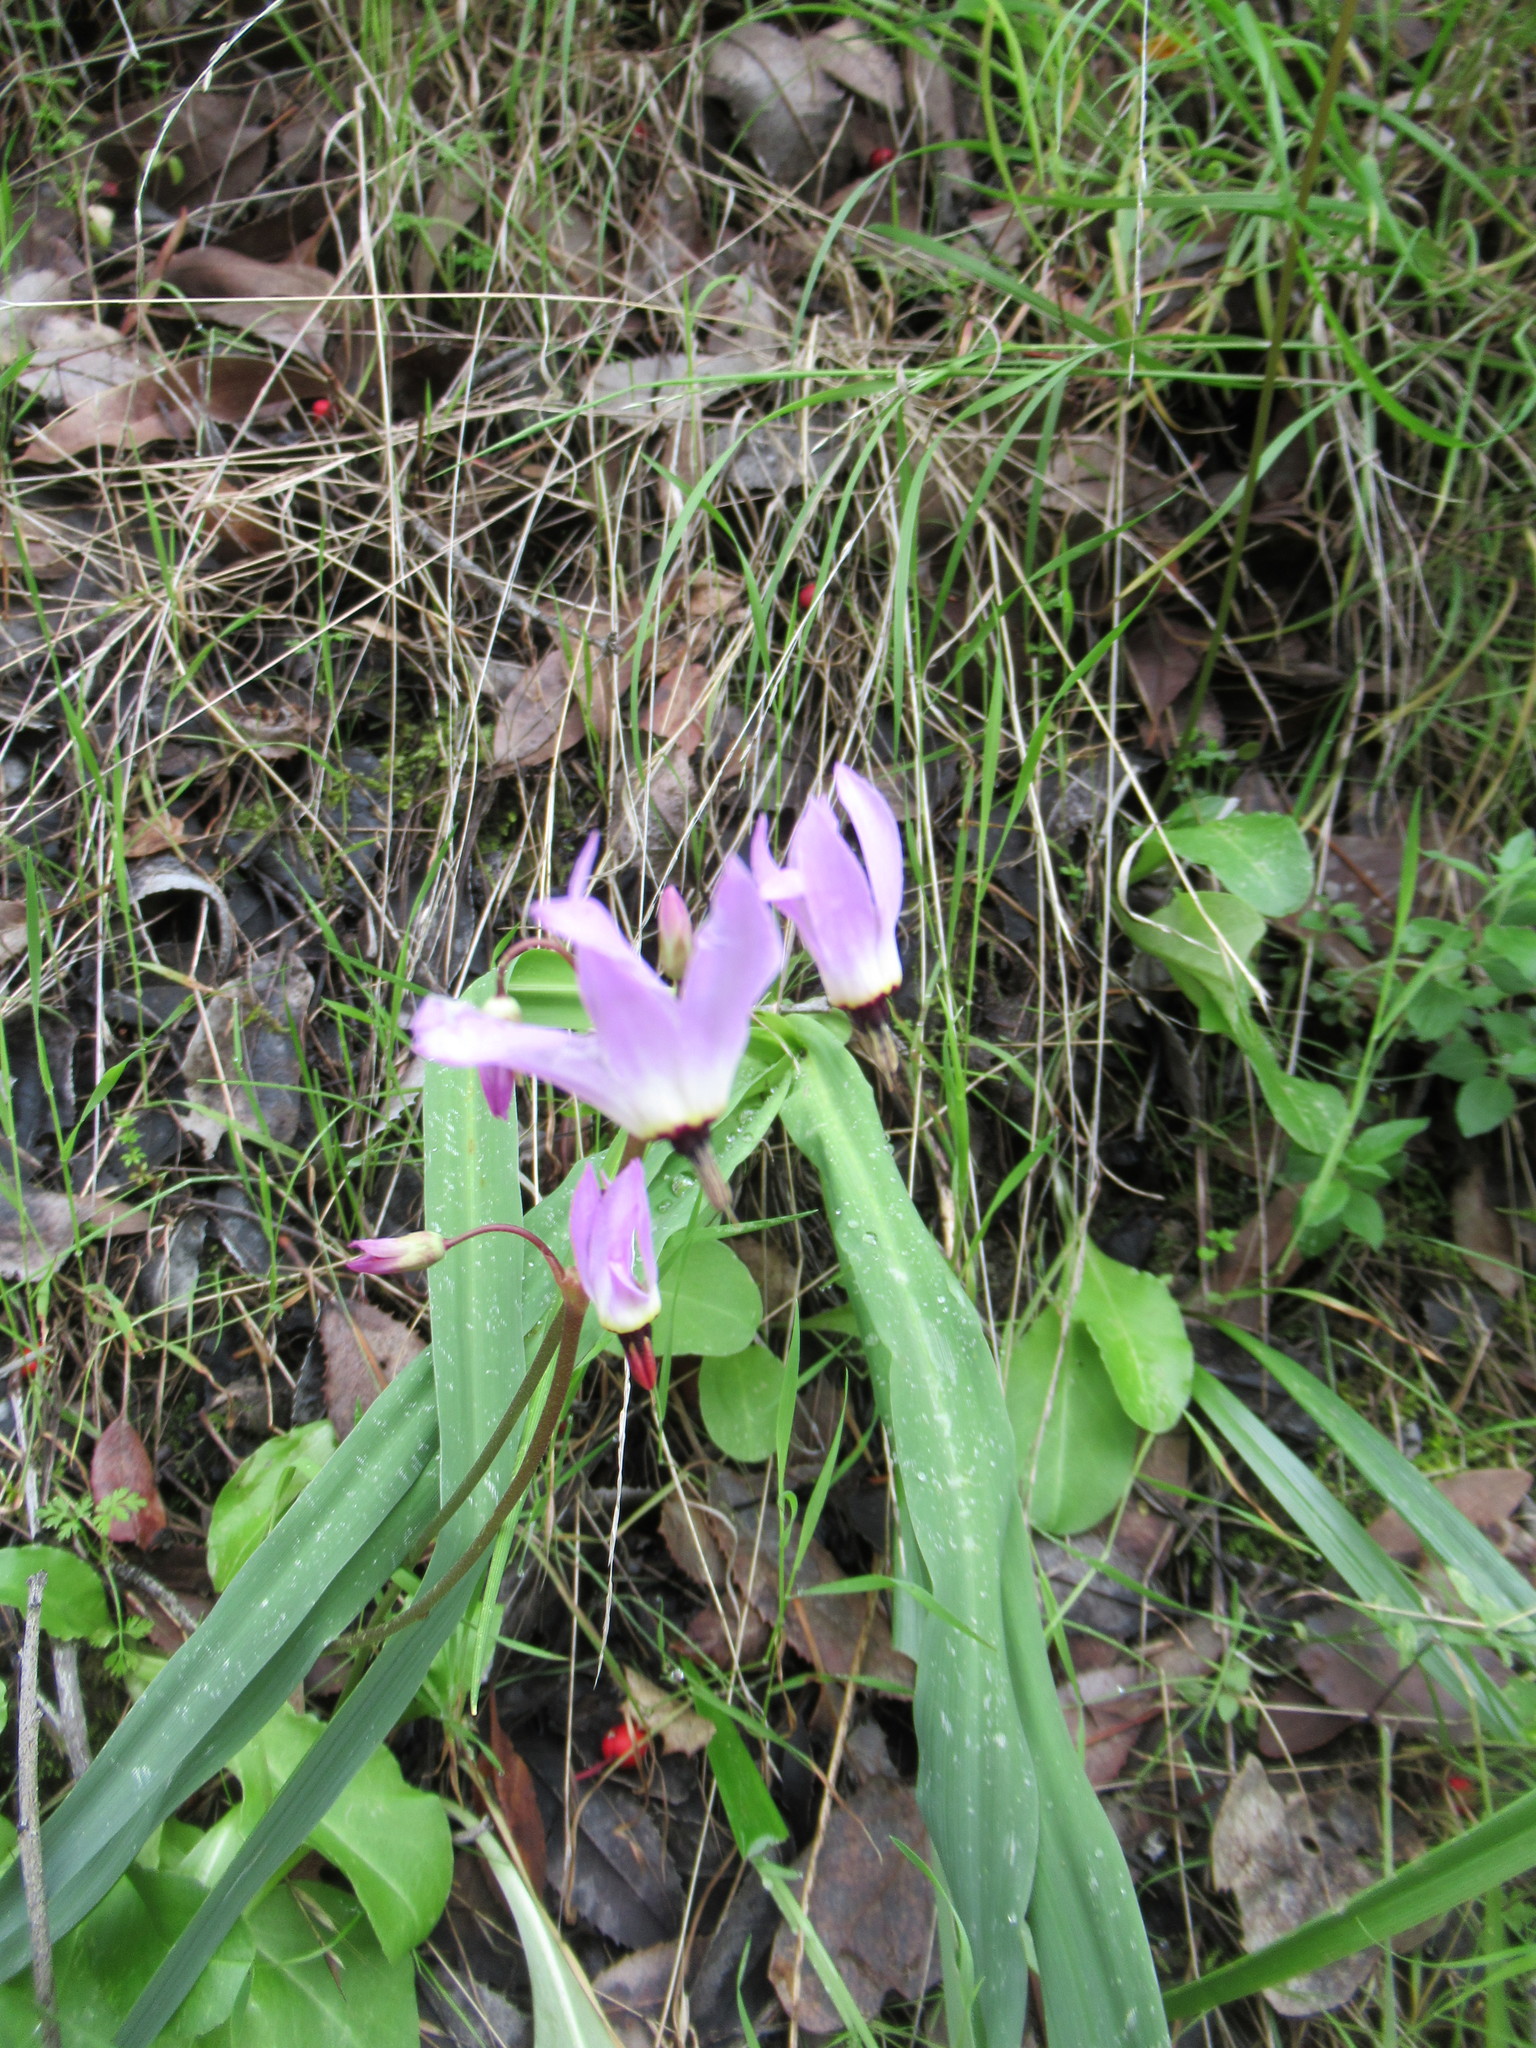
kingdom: Plantae
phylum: Tracheophyta
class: Magnoliopsida
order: Ericales
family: Primulaceae
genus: Dodecatheon
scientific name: Dodecatheon hendersonii
